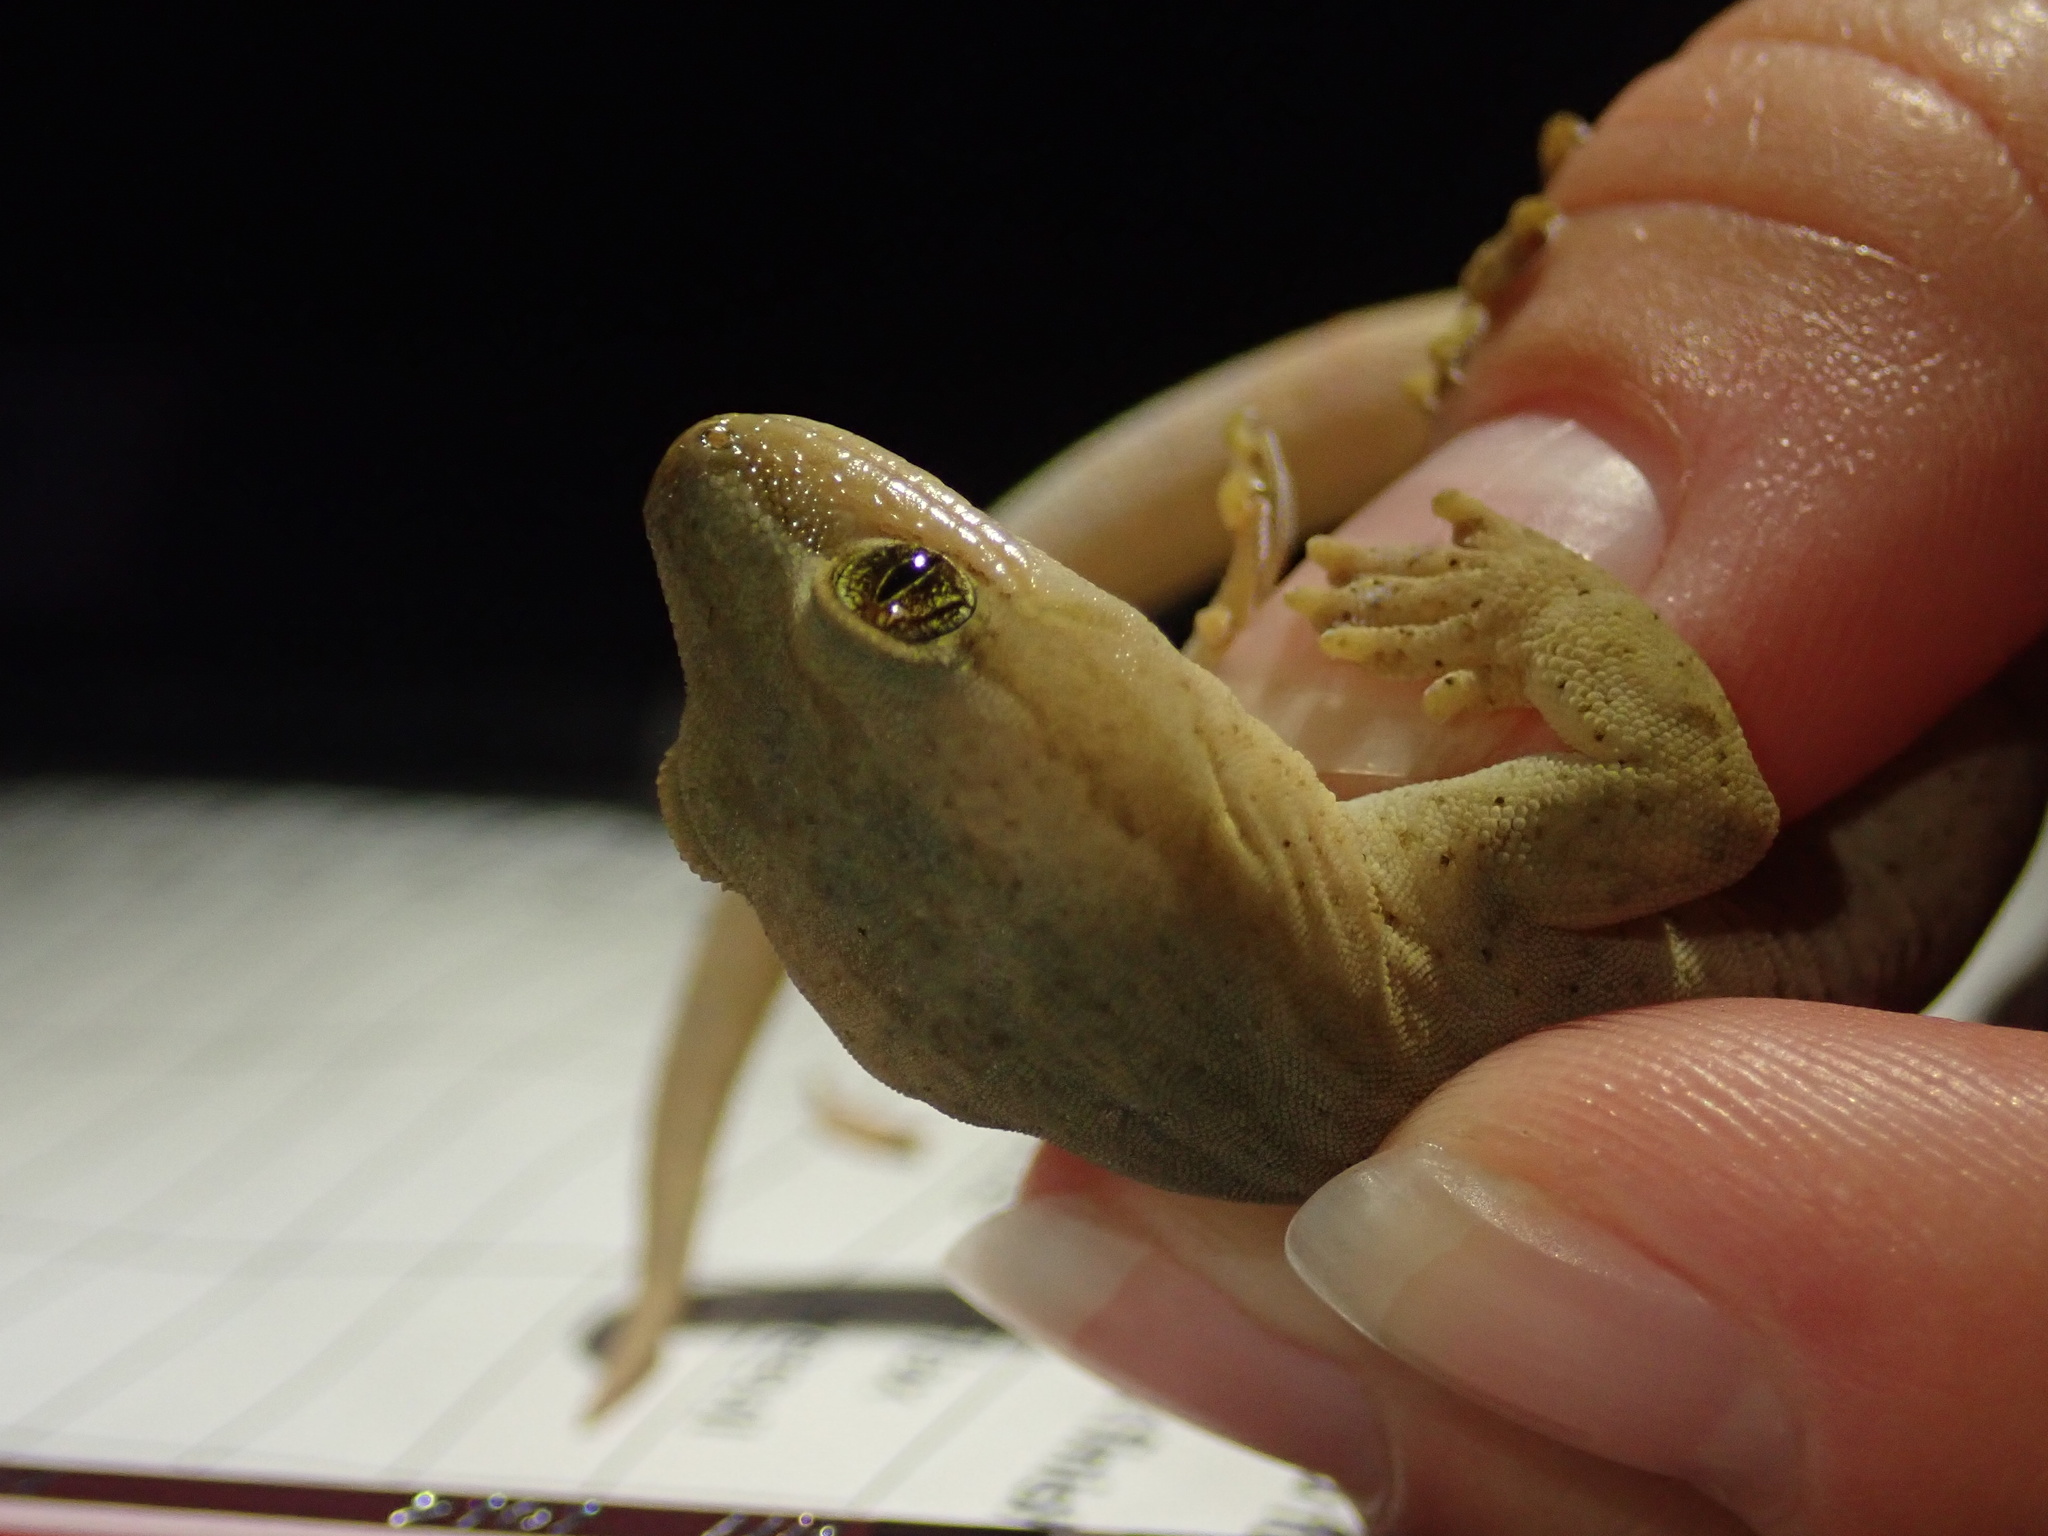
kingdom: Animalia
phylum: Chordata
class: Squamata
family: Diplodactylidae
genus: Woodworthia
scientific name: Woodworthia chrysosiretica
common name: Gold-striped gecko
